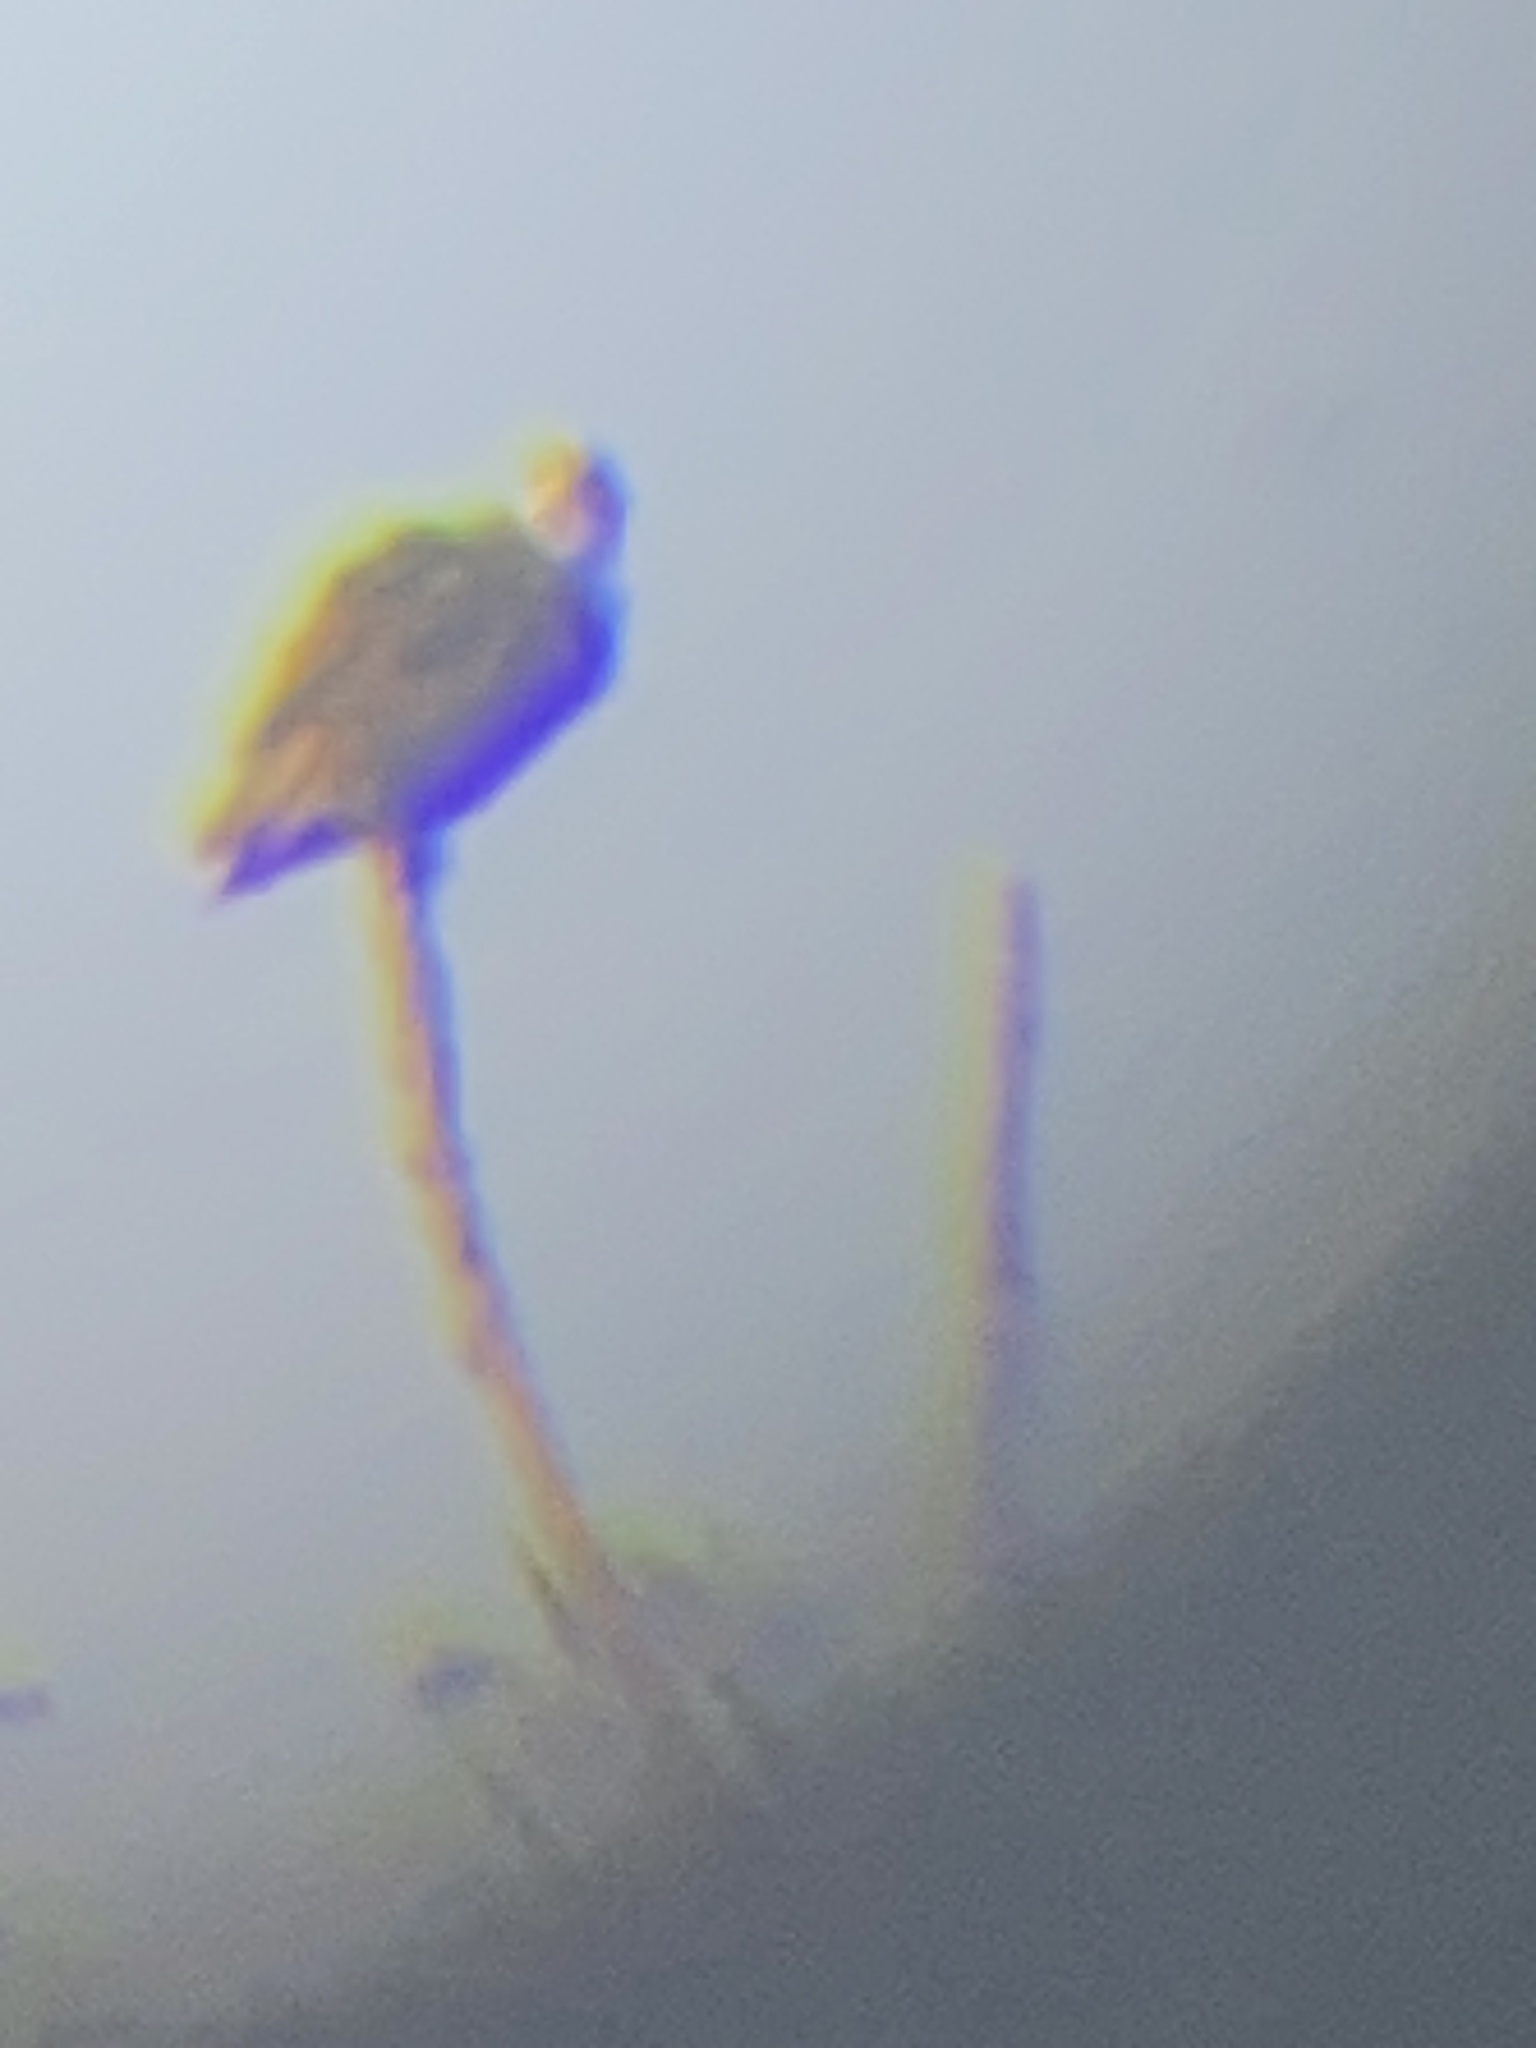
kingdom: Animalia
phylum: Chordata
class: Aves
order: Accipitriformes
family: Pandionidae
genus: Pandion
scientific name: Pandion haliaetus
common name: Osprey
